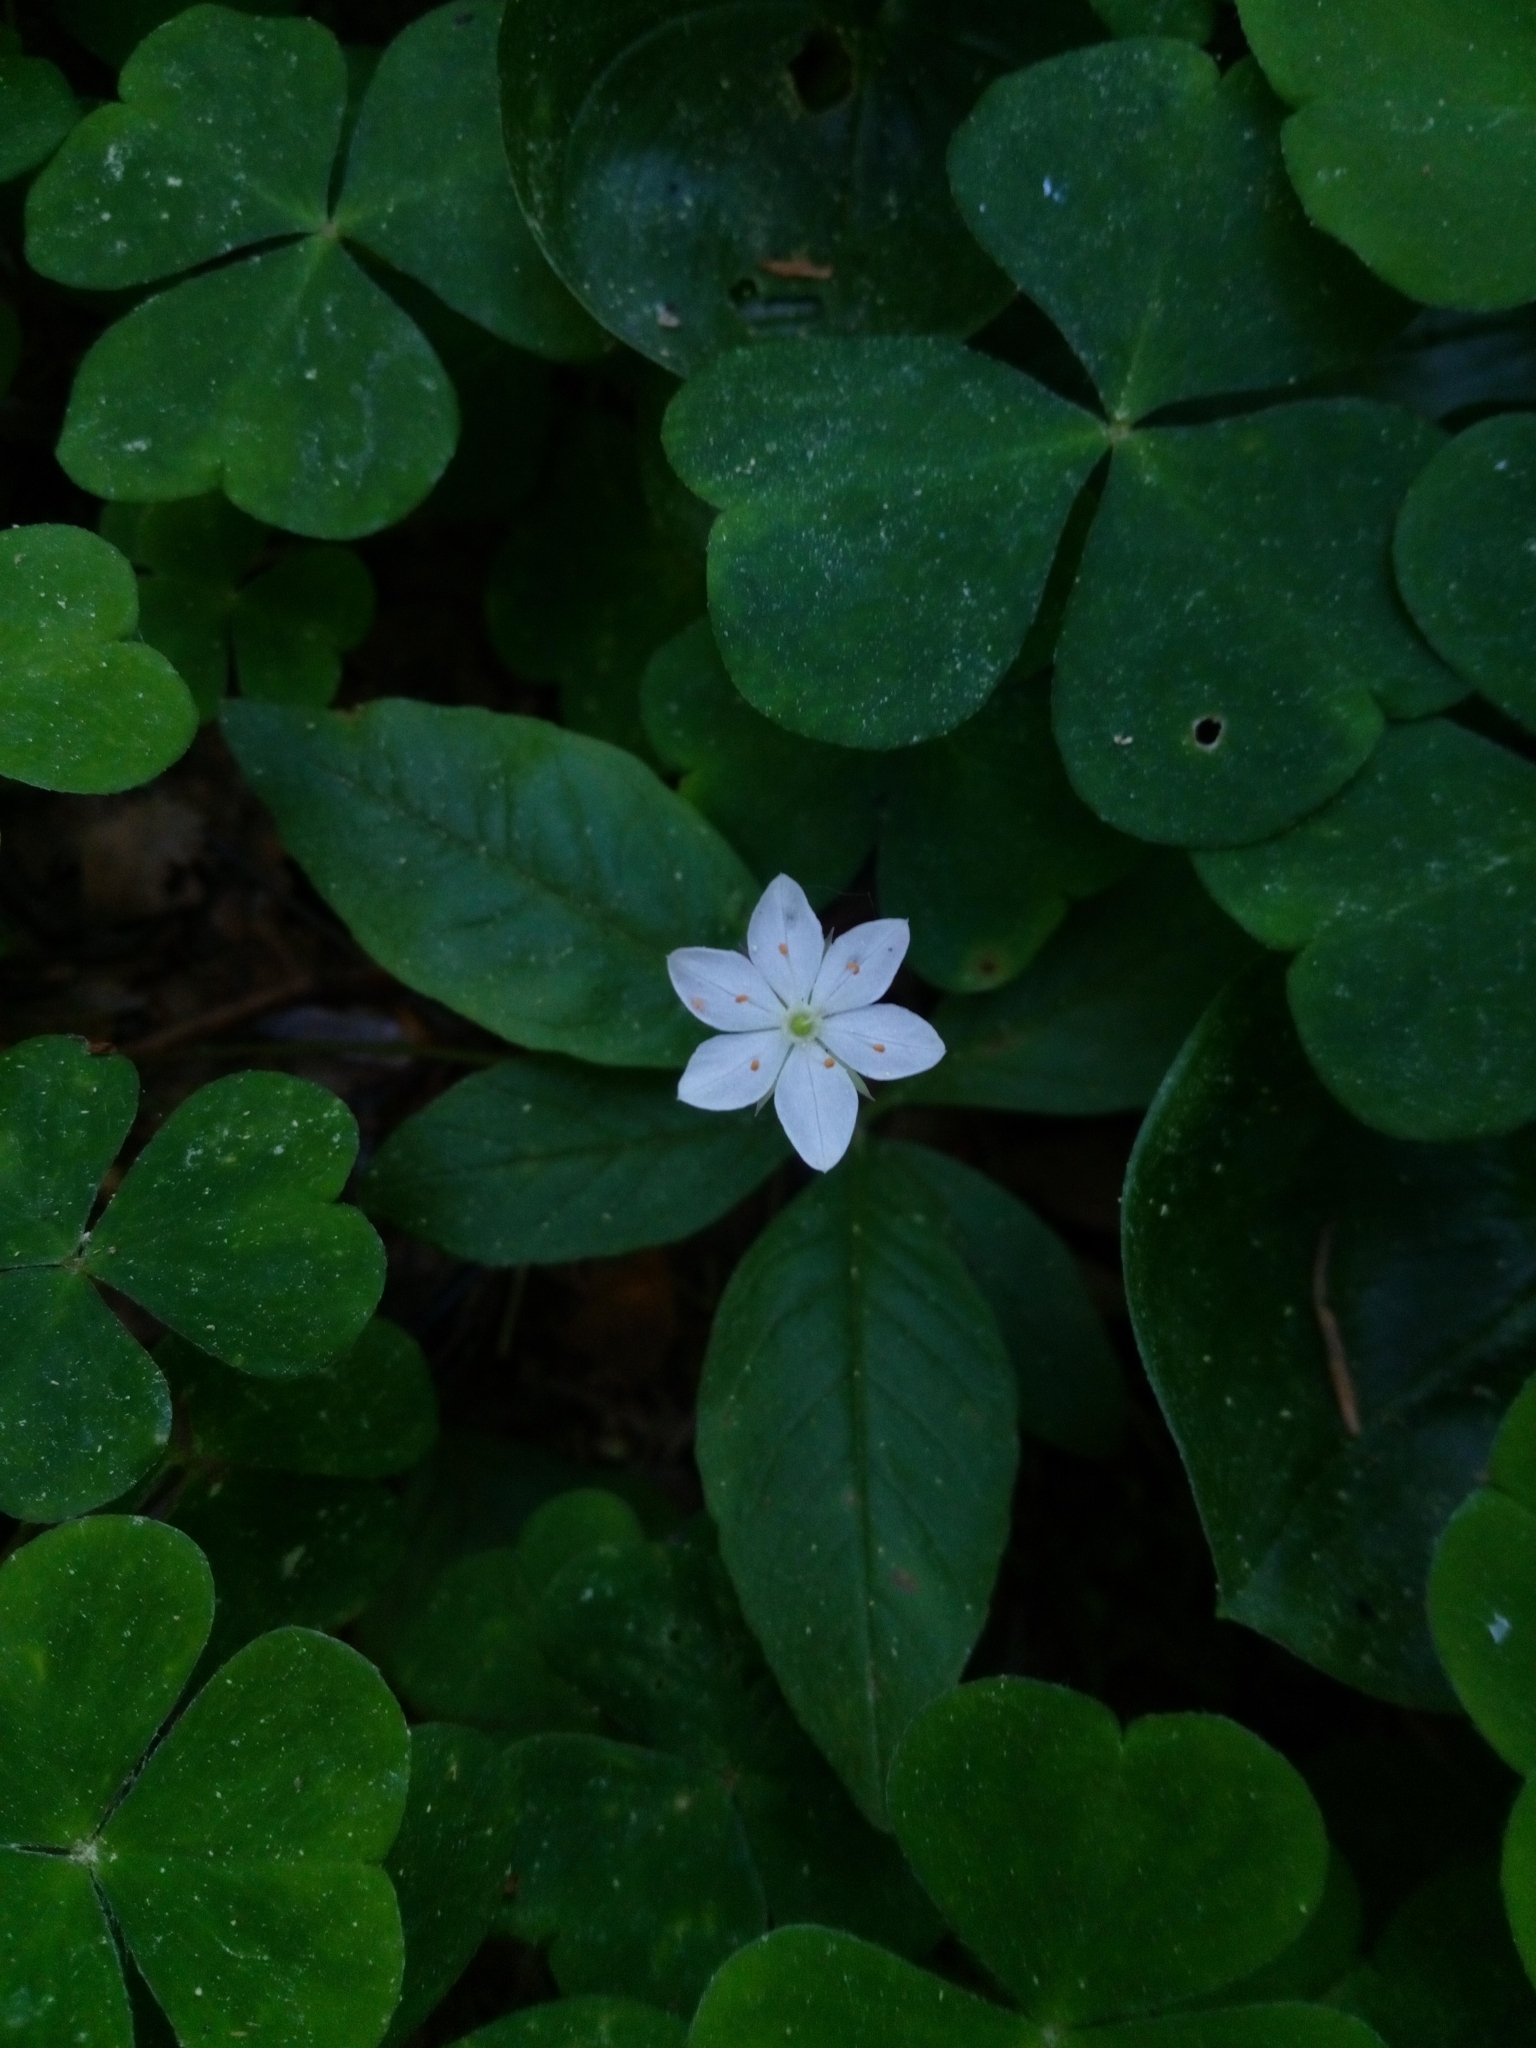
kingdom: Plantae
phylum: Tracheophyta
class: Magnoliopsida
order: Ericales
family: Primulaceae
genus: Lysimachia
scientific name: Lysimachia europaea
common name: Arctic starflower
